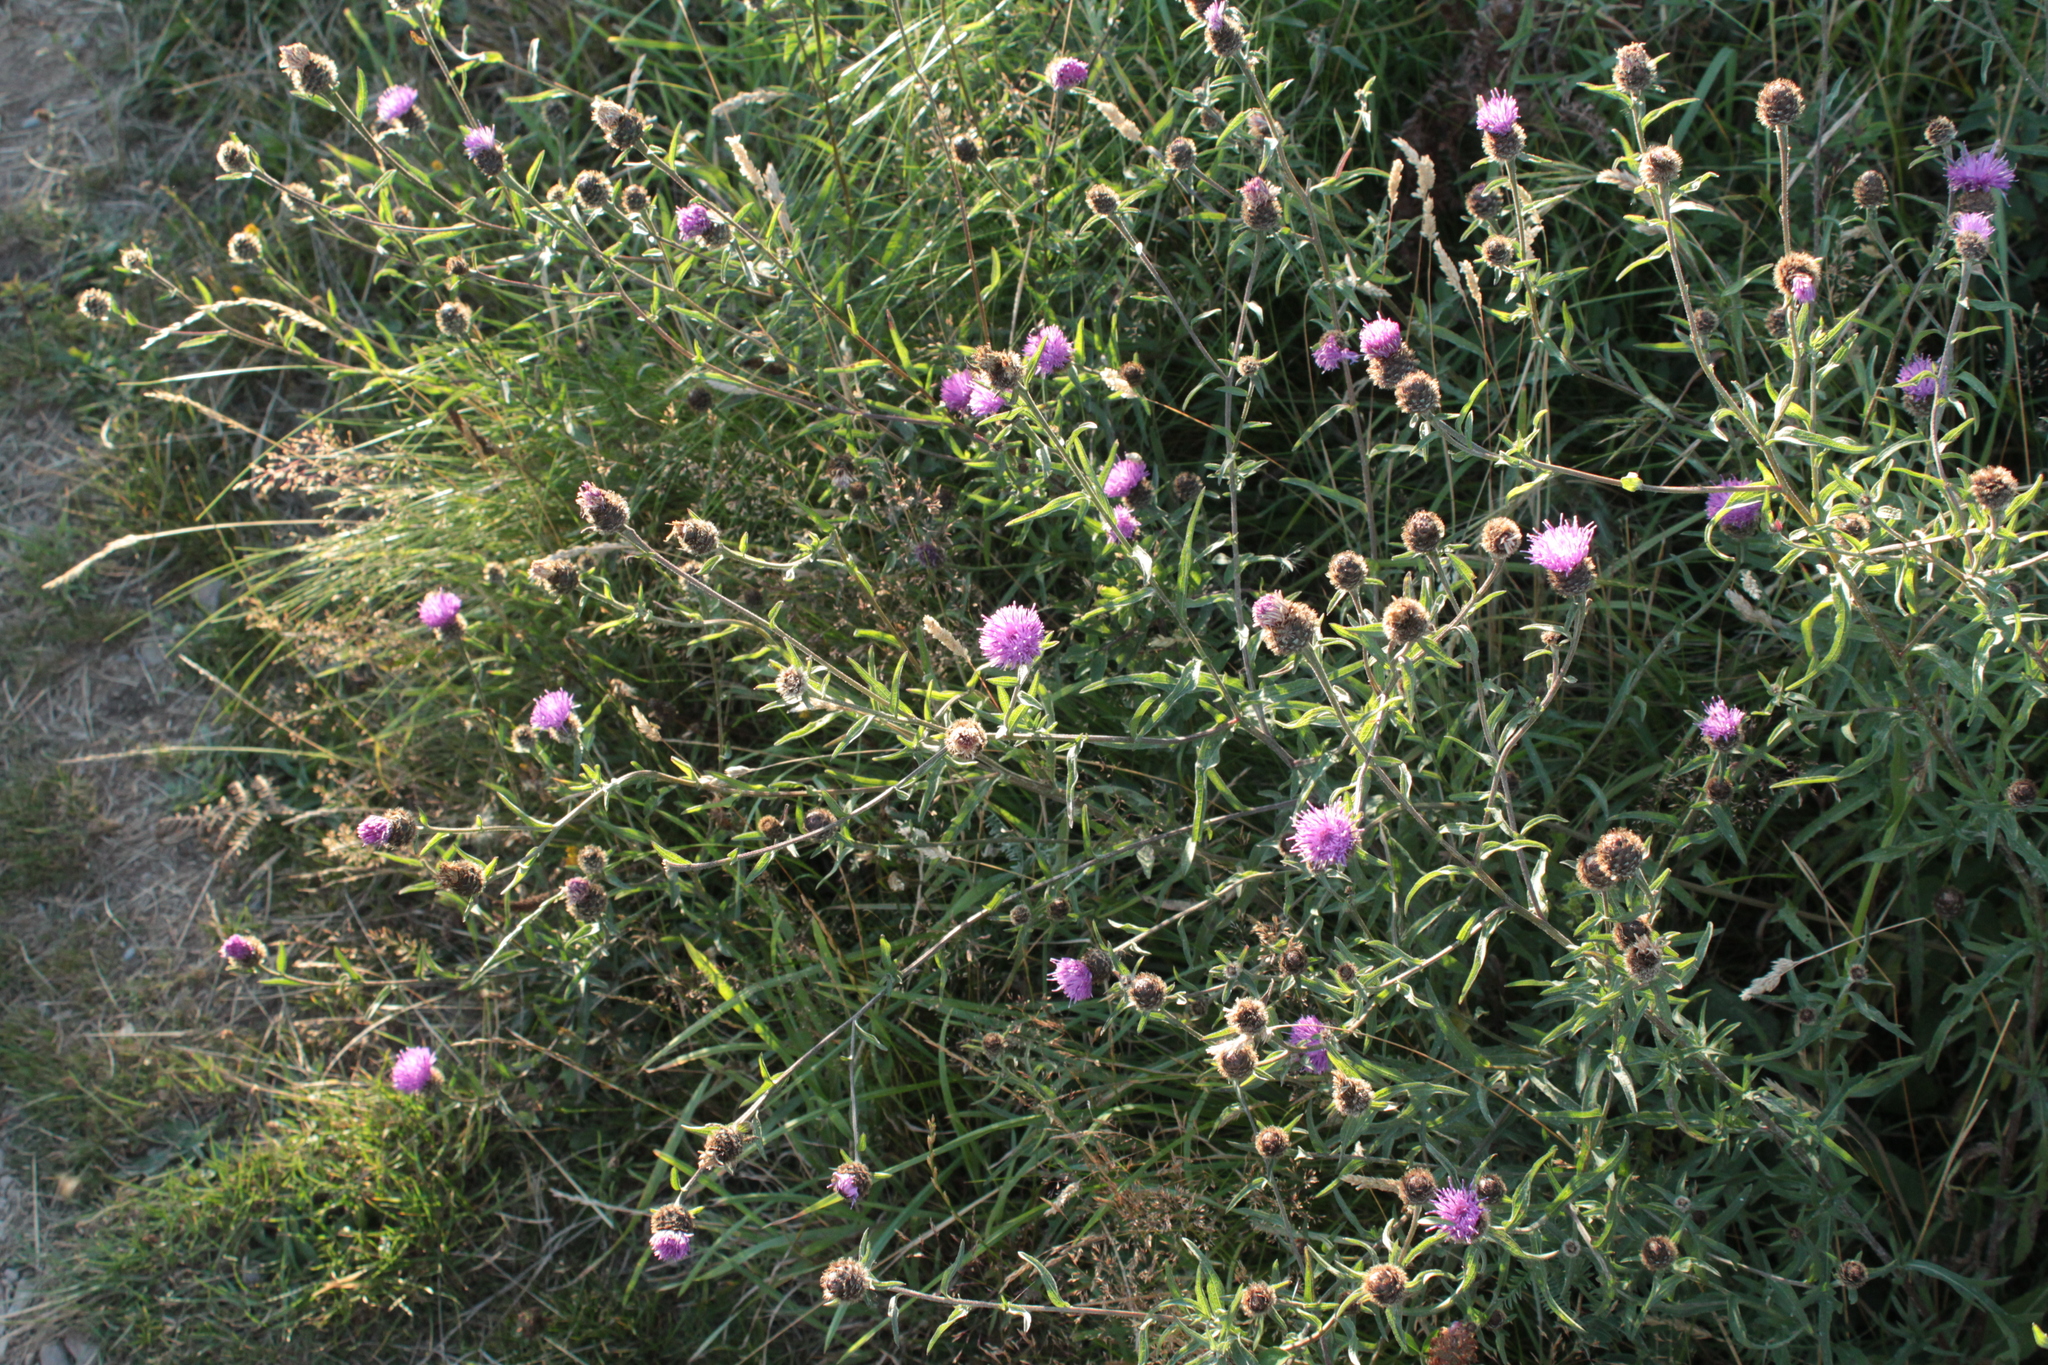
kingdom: Plantae
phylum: Tracheophyta
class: Magnoliopsida
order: Asterales
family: Asteraceae
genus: Centaurea
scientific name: Centaurea nigra
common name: Lesser knapweed
